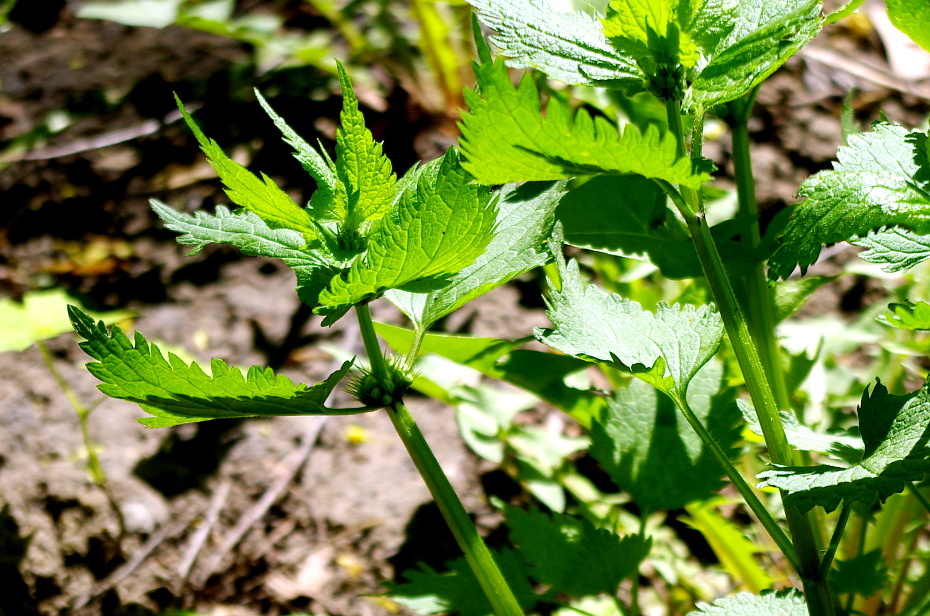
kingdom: Plantae
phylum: Tracheophyta
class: Magnoliopsida
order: Lamiales
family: Lamiaceae
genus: Lamium
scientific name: Lamium album
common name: White dead-nettle
